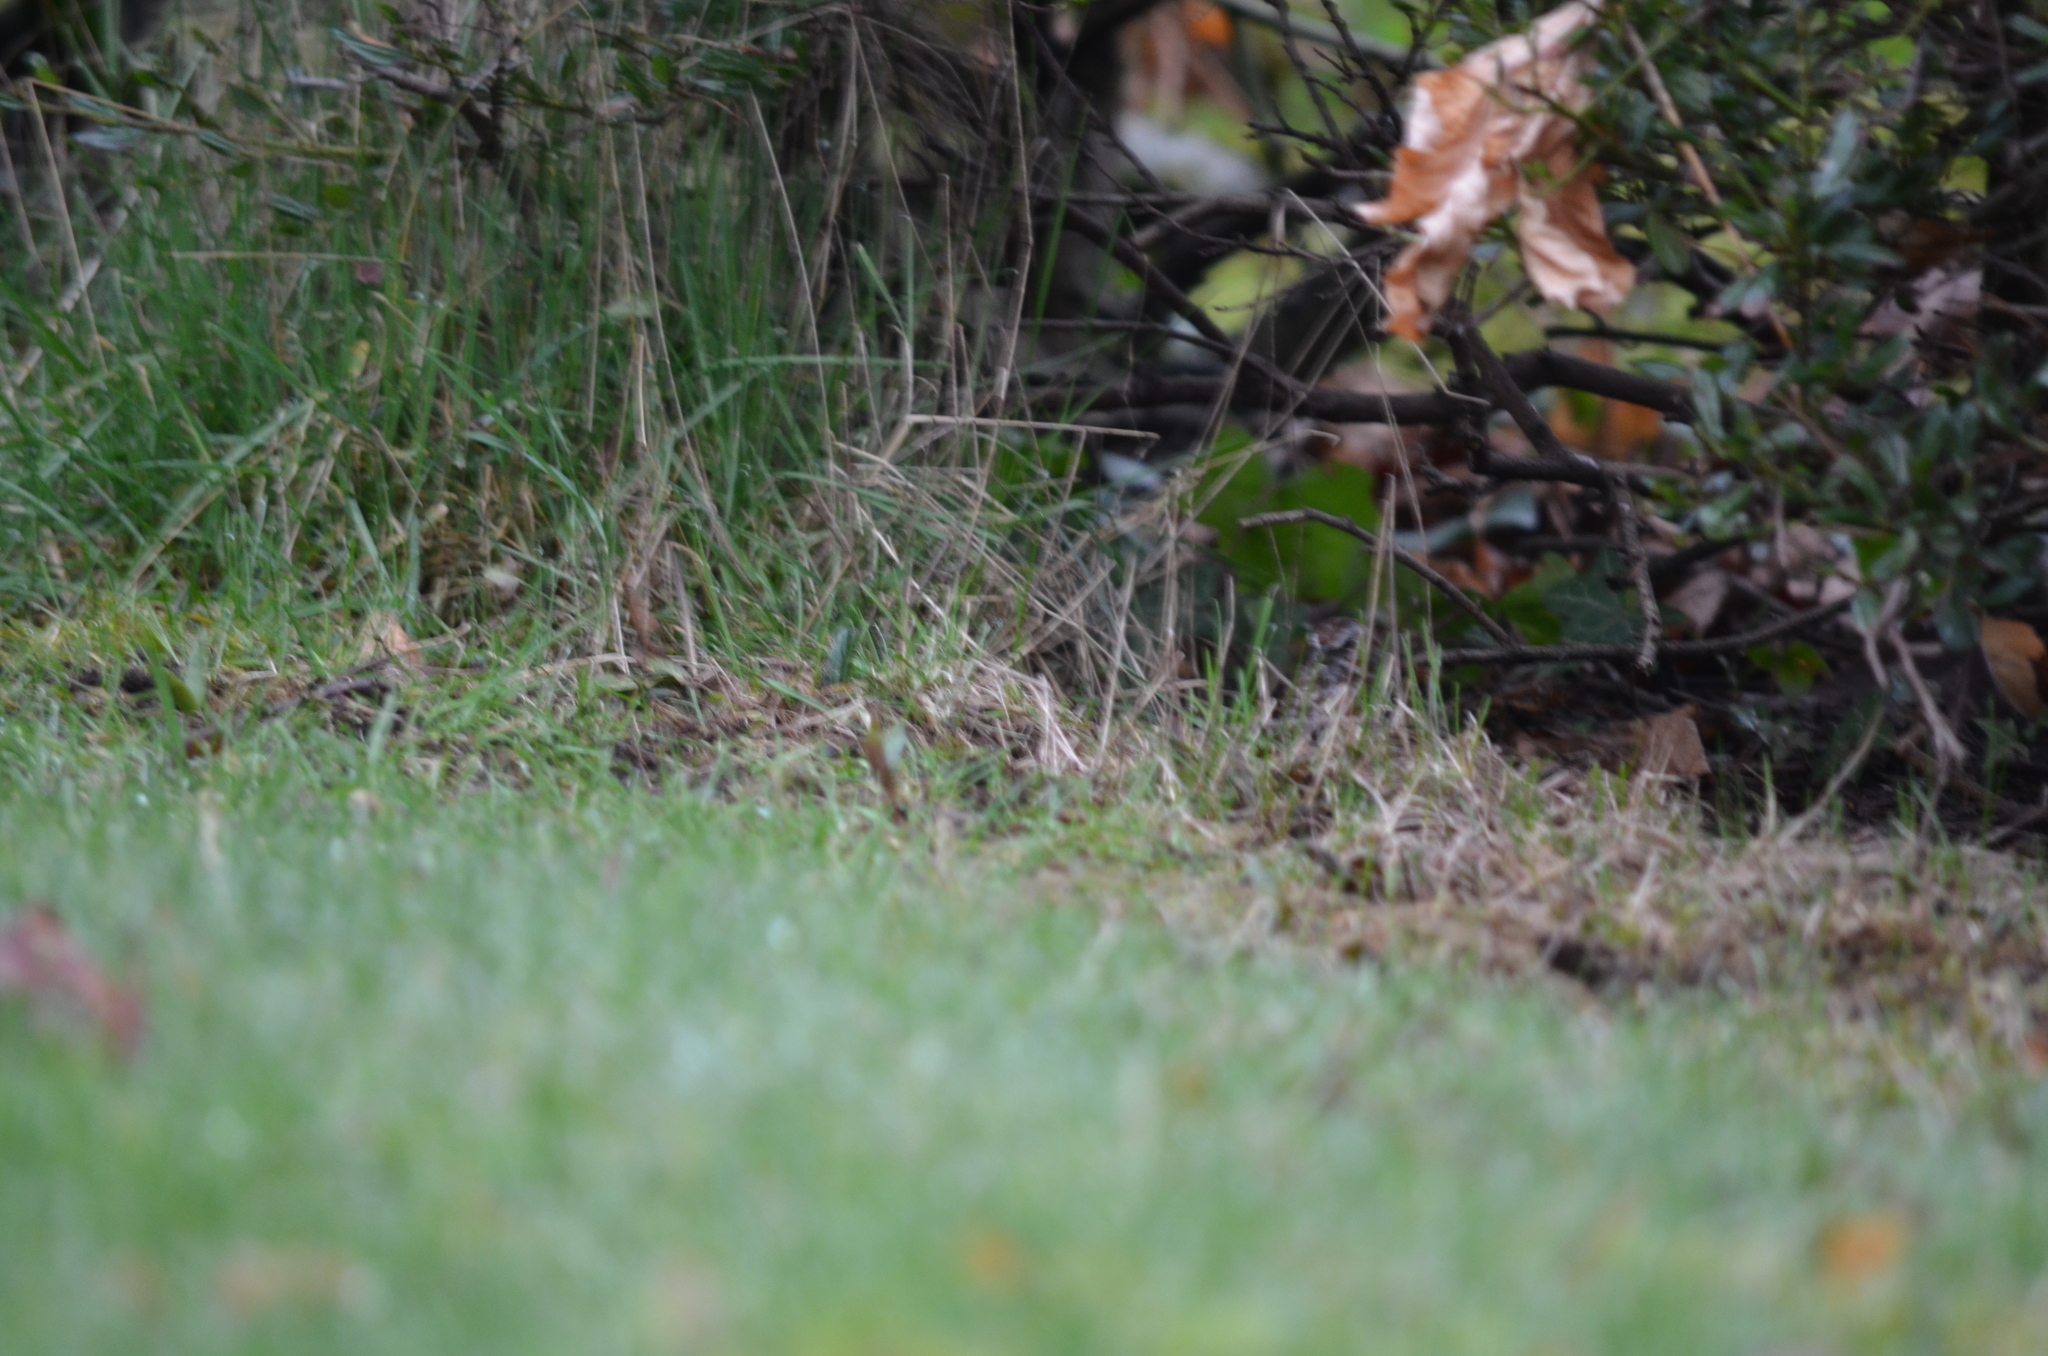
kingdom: Animalia
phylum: Chordata
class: Aves
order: Passeriformes
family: Passerellidae
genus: Melospiza
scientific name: Melospiza melodia
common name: Song sparrow
